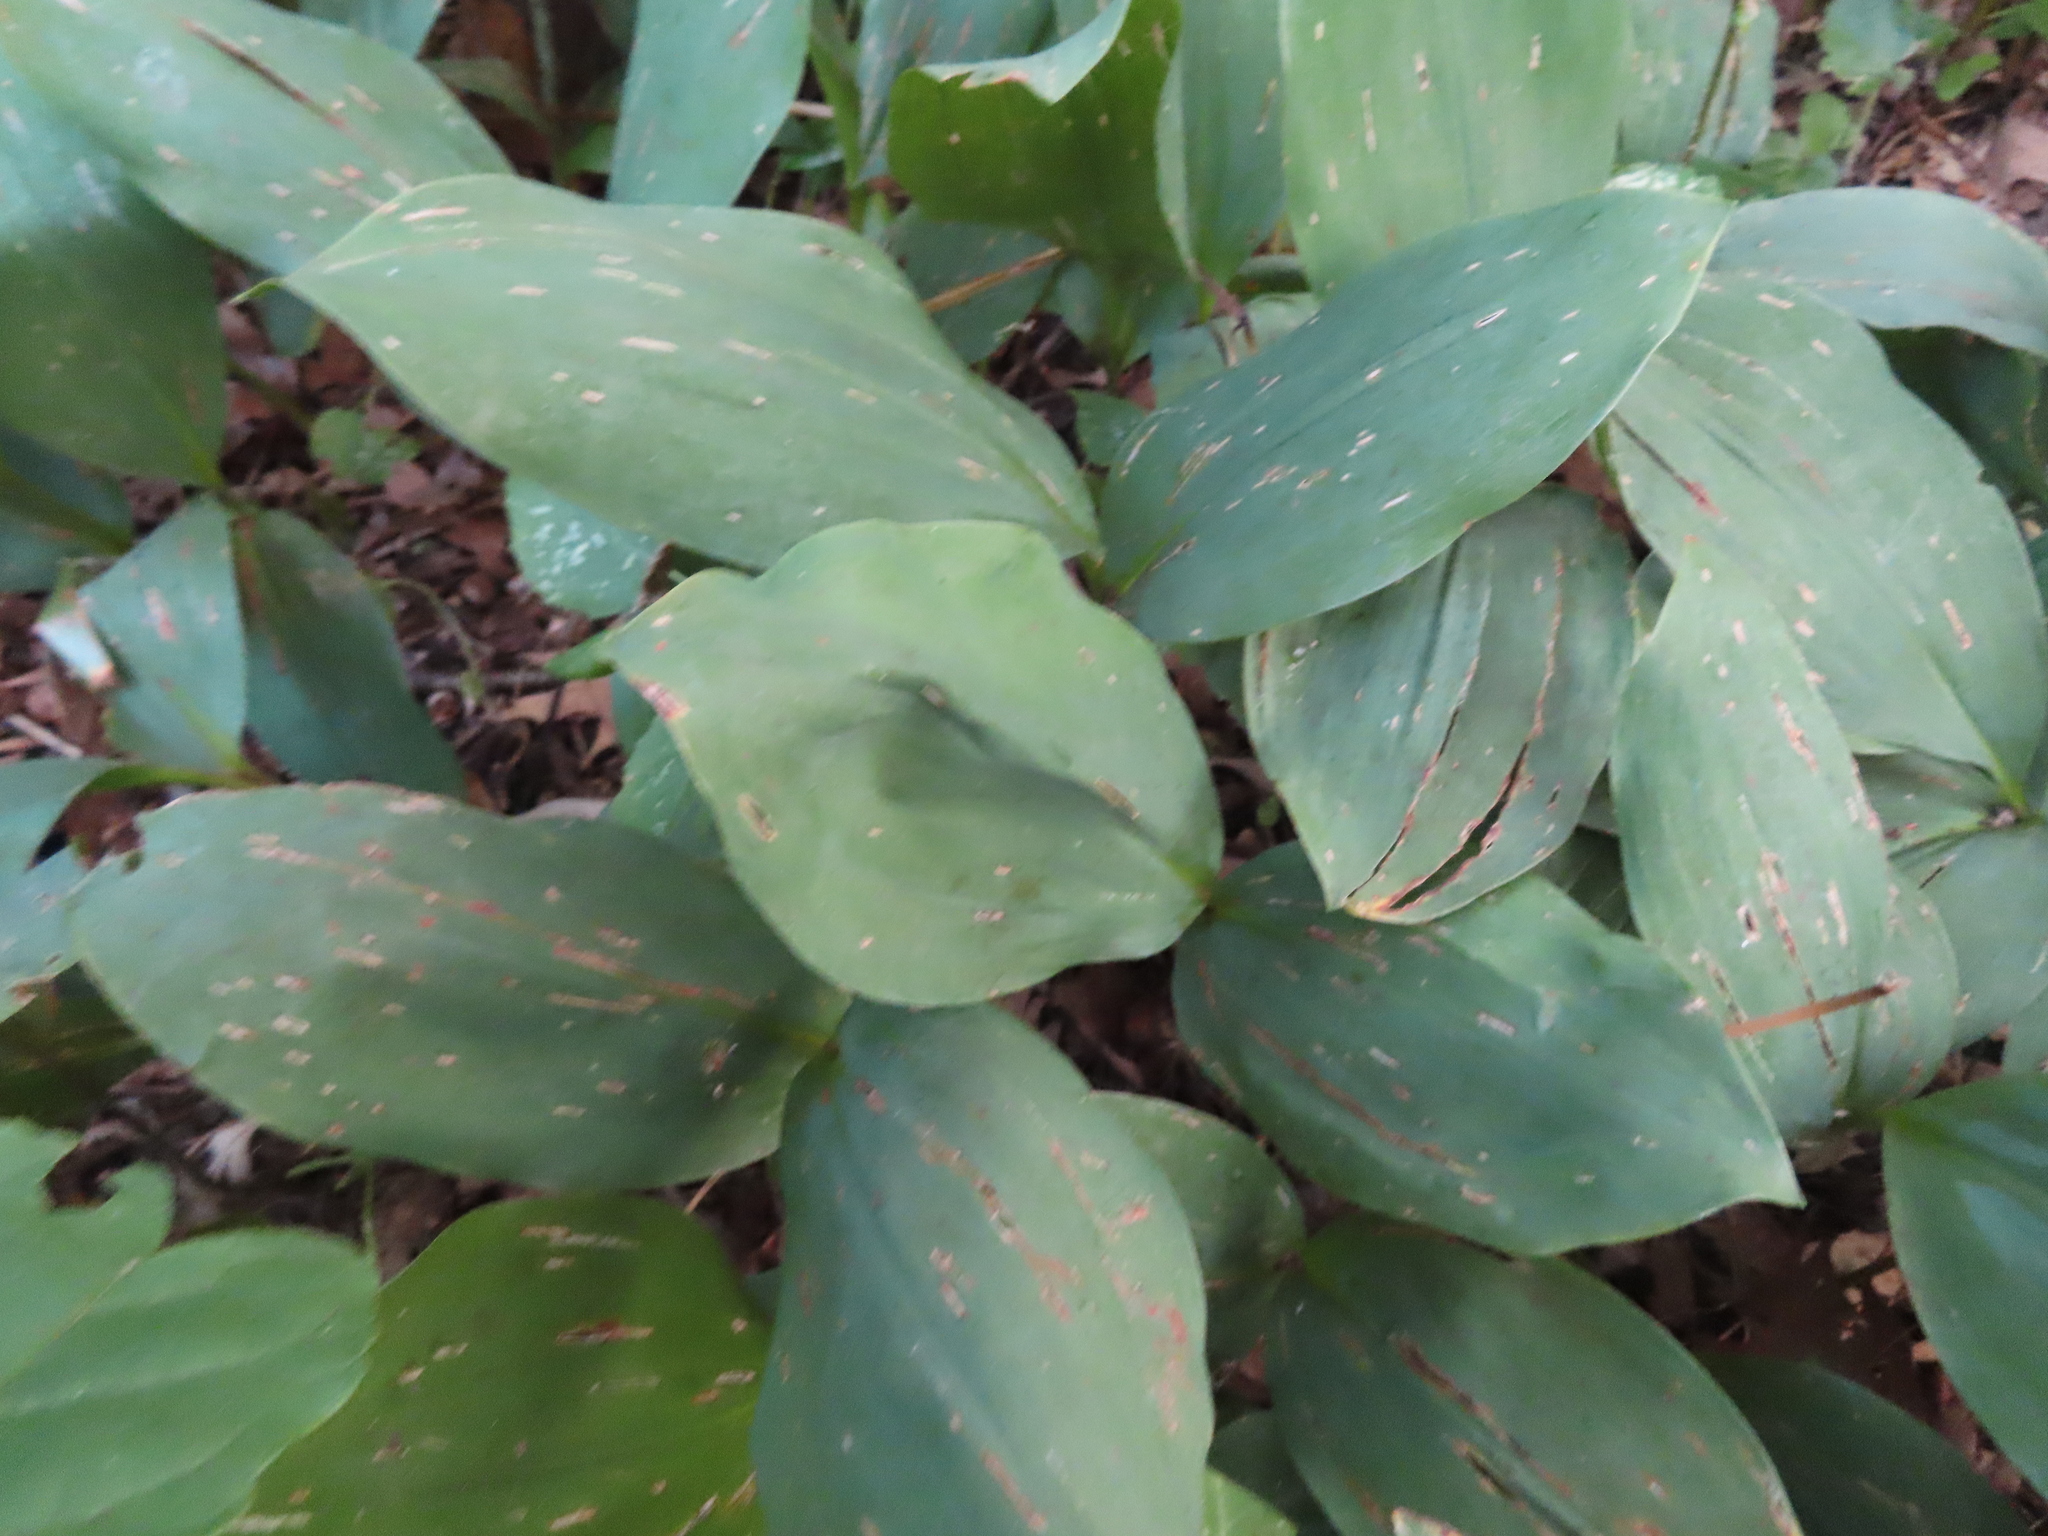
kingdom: Plantae
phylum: Tracheophyta
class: Liliopsida
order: Asparagales
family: Asparagaceae
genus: Convallaria
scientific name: Convallaria majalis
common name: Lily-of-the-valley
